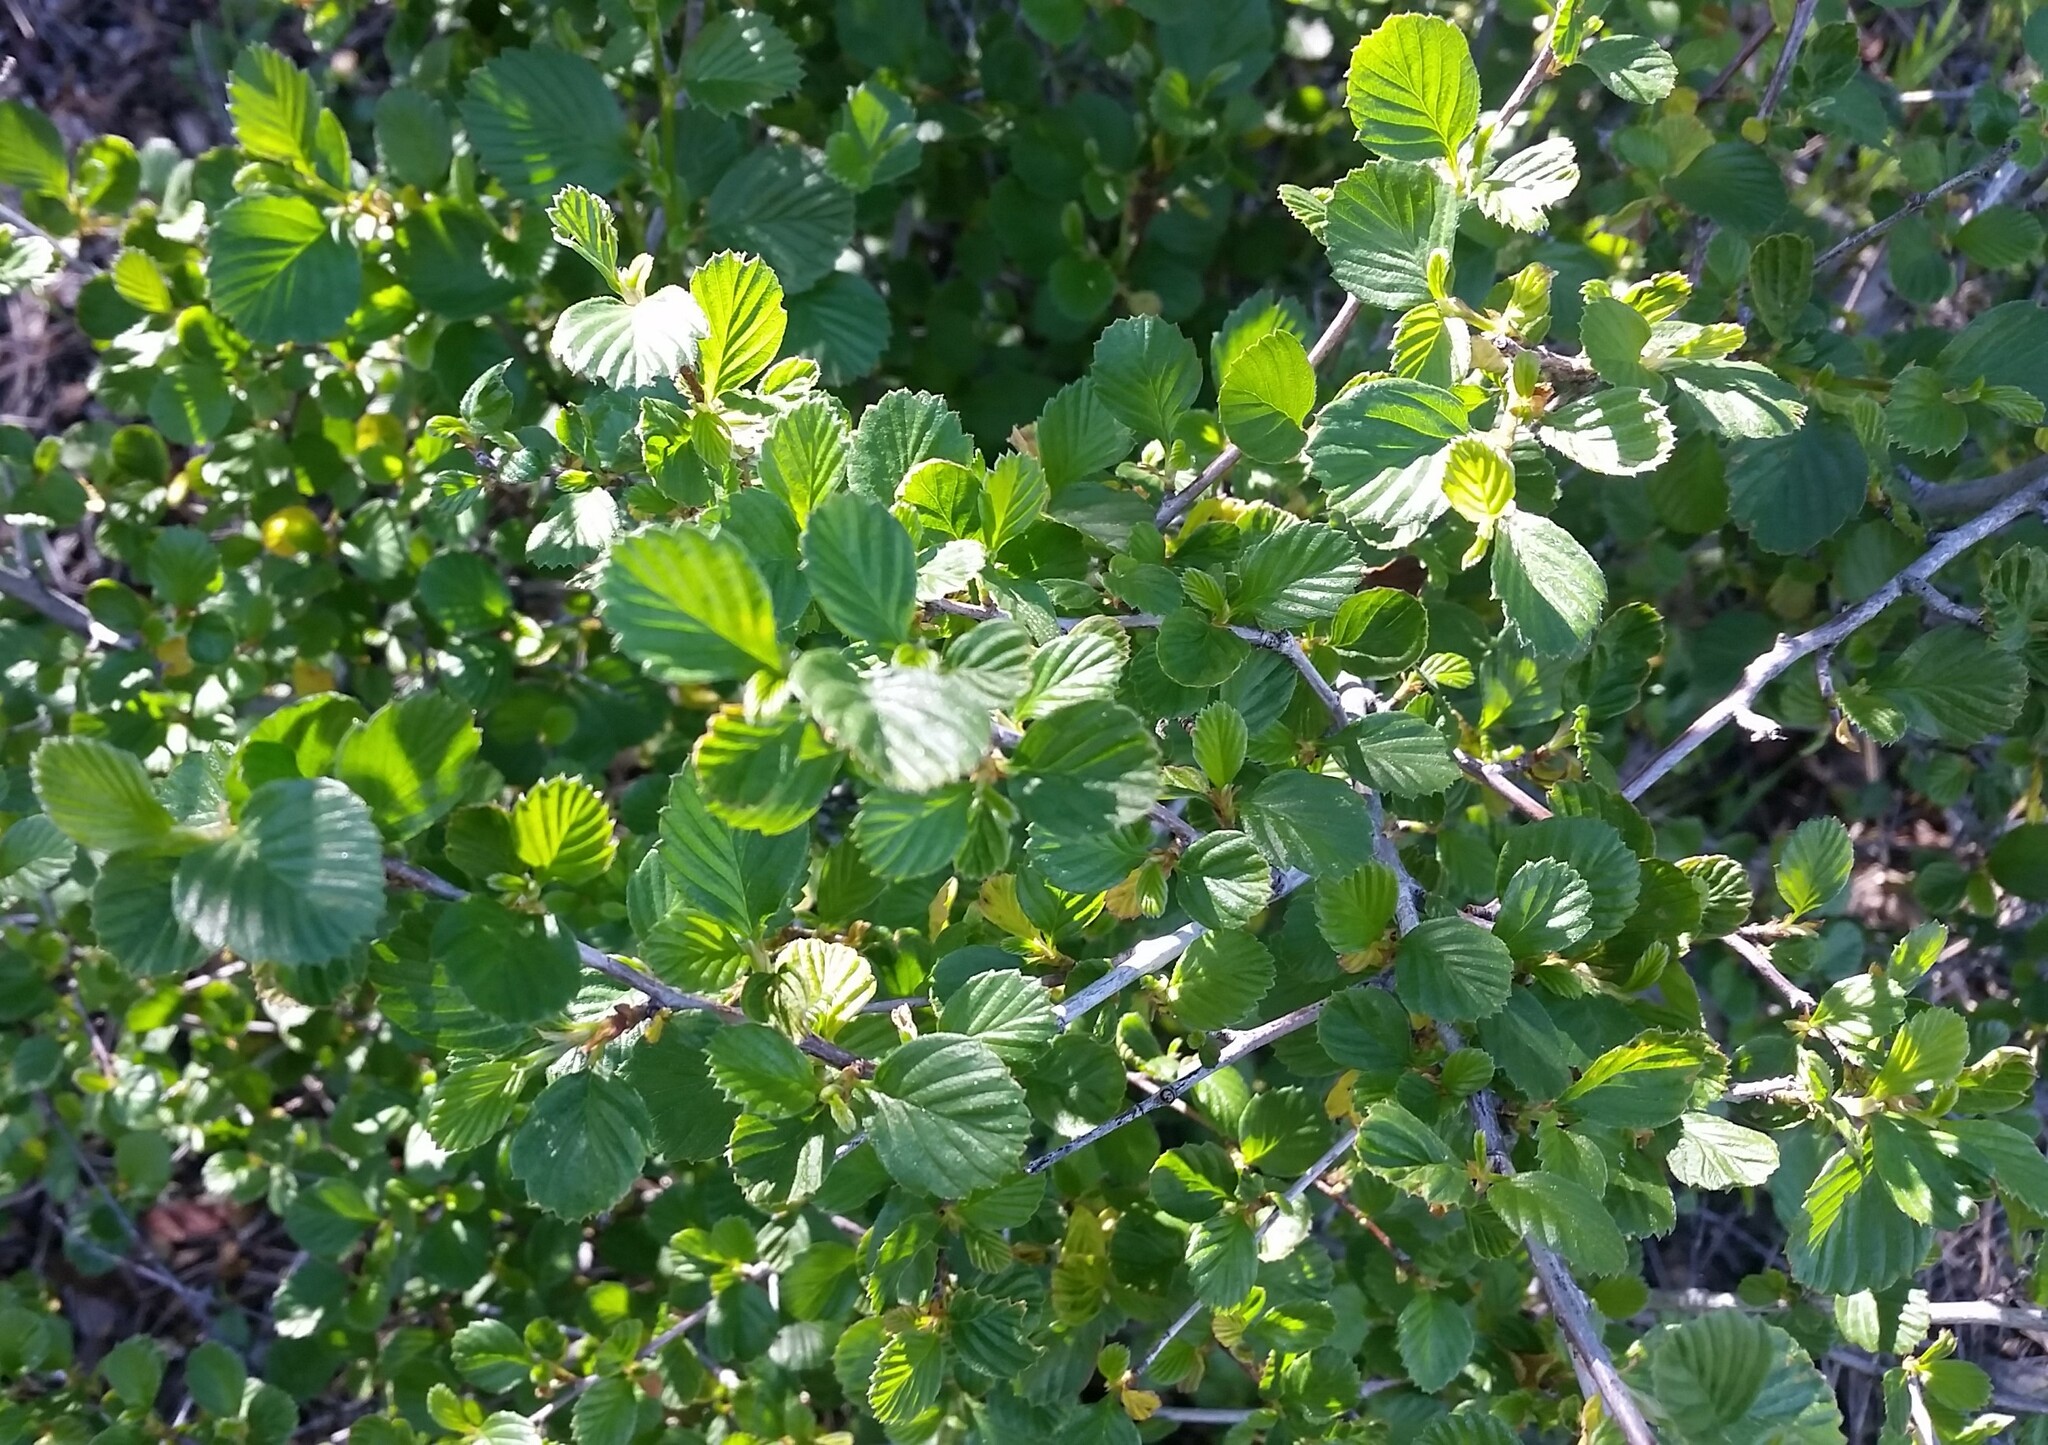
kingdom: Plantae
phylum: Tracheophyta
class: Magnoliopsida
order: Rosales
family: Rosaceae
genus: Cercocarpus
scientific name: Cercocarpus betuloides
